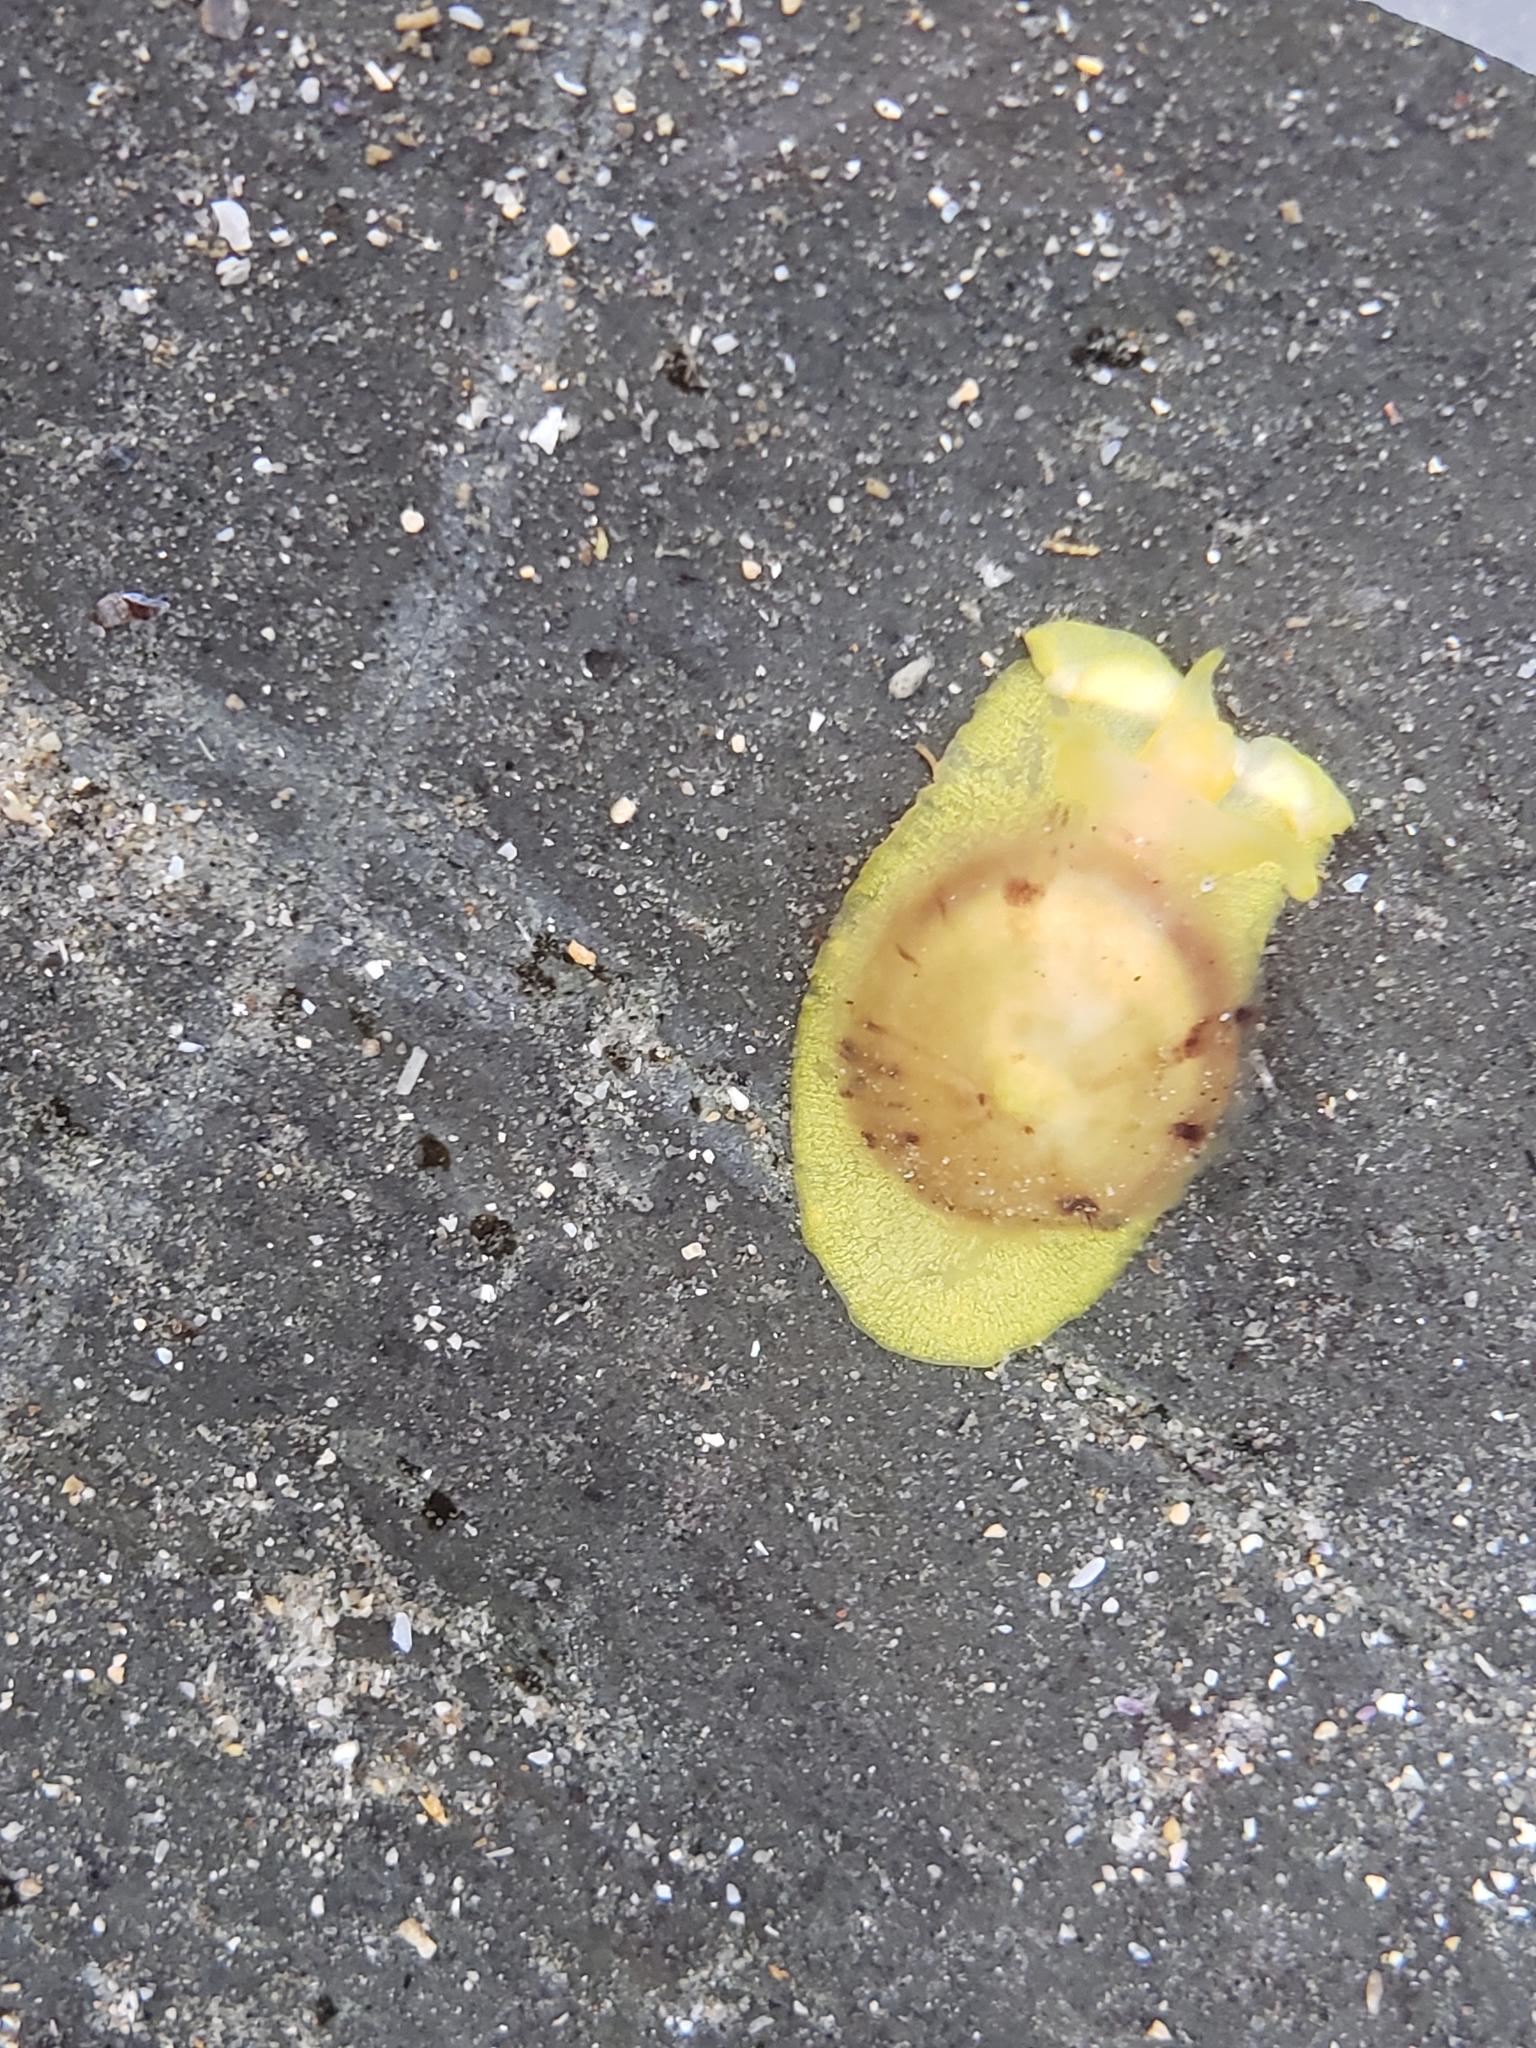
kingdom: Animalia
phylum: Mollusca
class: Gastropoda
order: Umbraculida
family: Tylodinidae
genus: Tylodina
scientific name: Tylodina fungina
